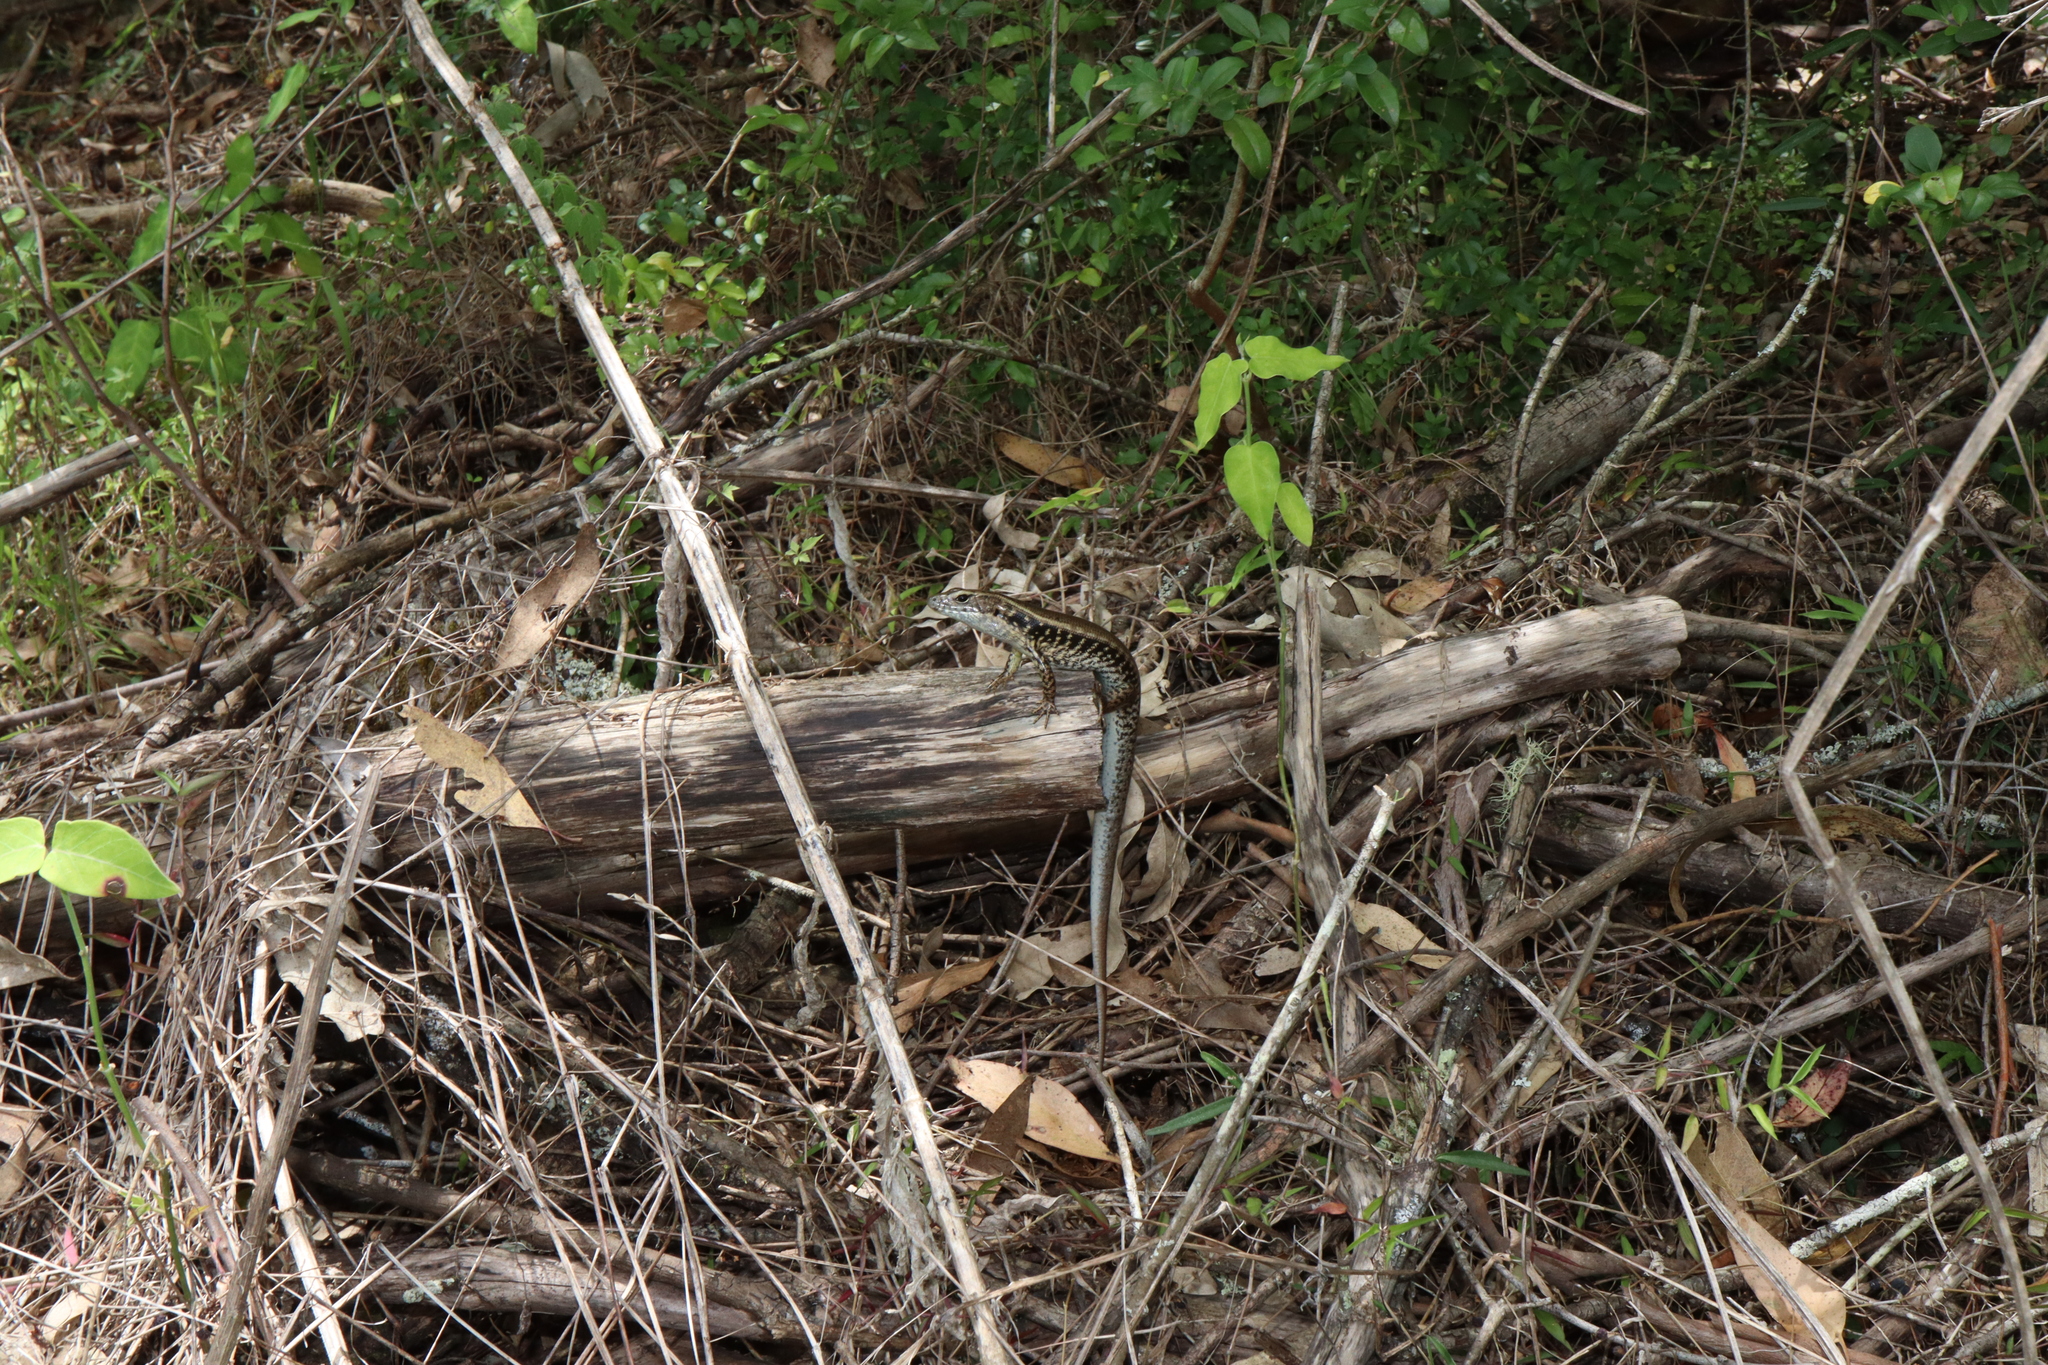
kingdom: Animalia
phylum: Chordata
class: Squamata
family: Scincidae
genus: Eulamprus
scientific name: Eulamprus quoyii
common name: Eastern water skink
